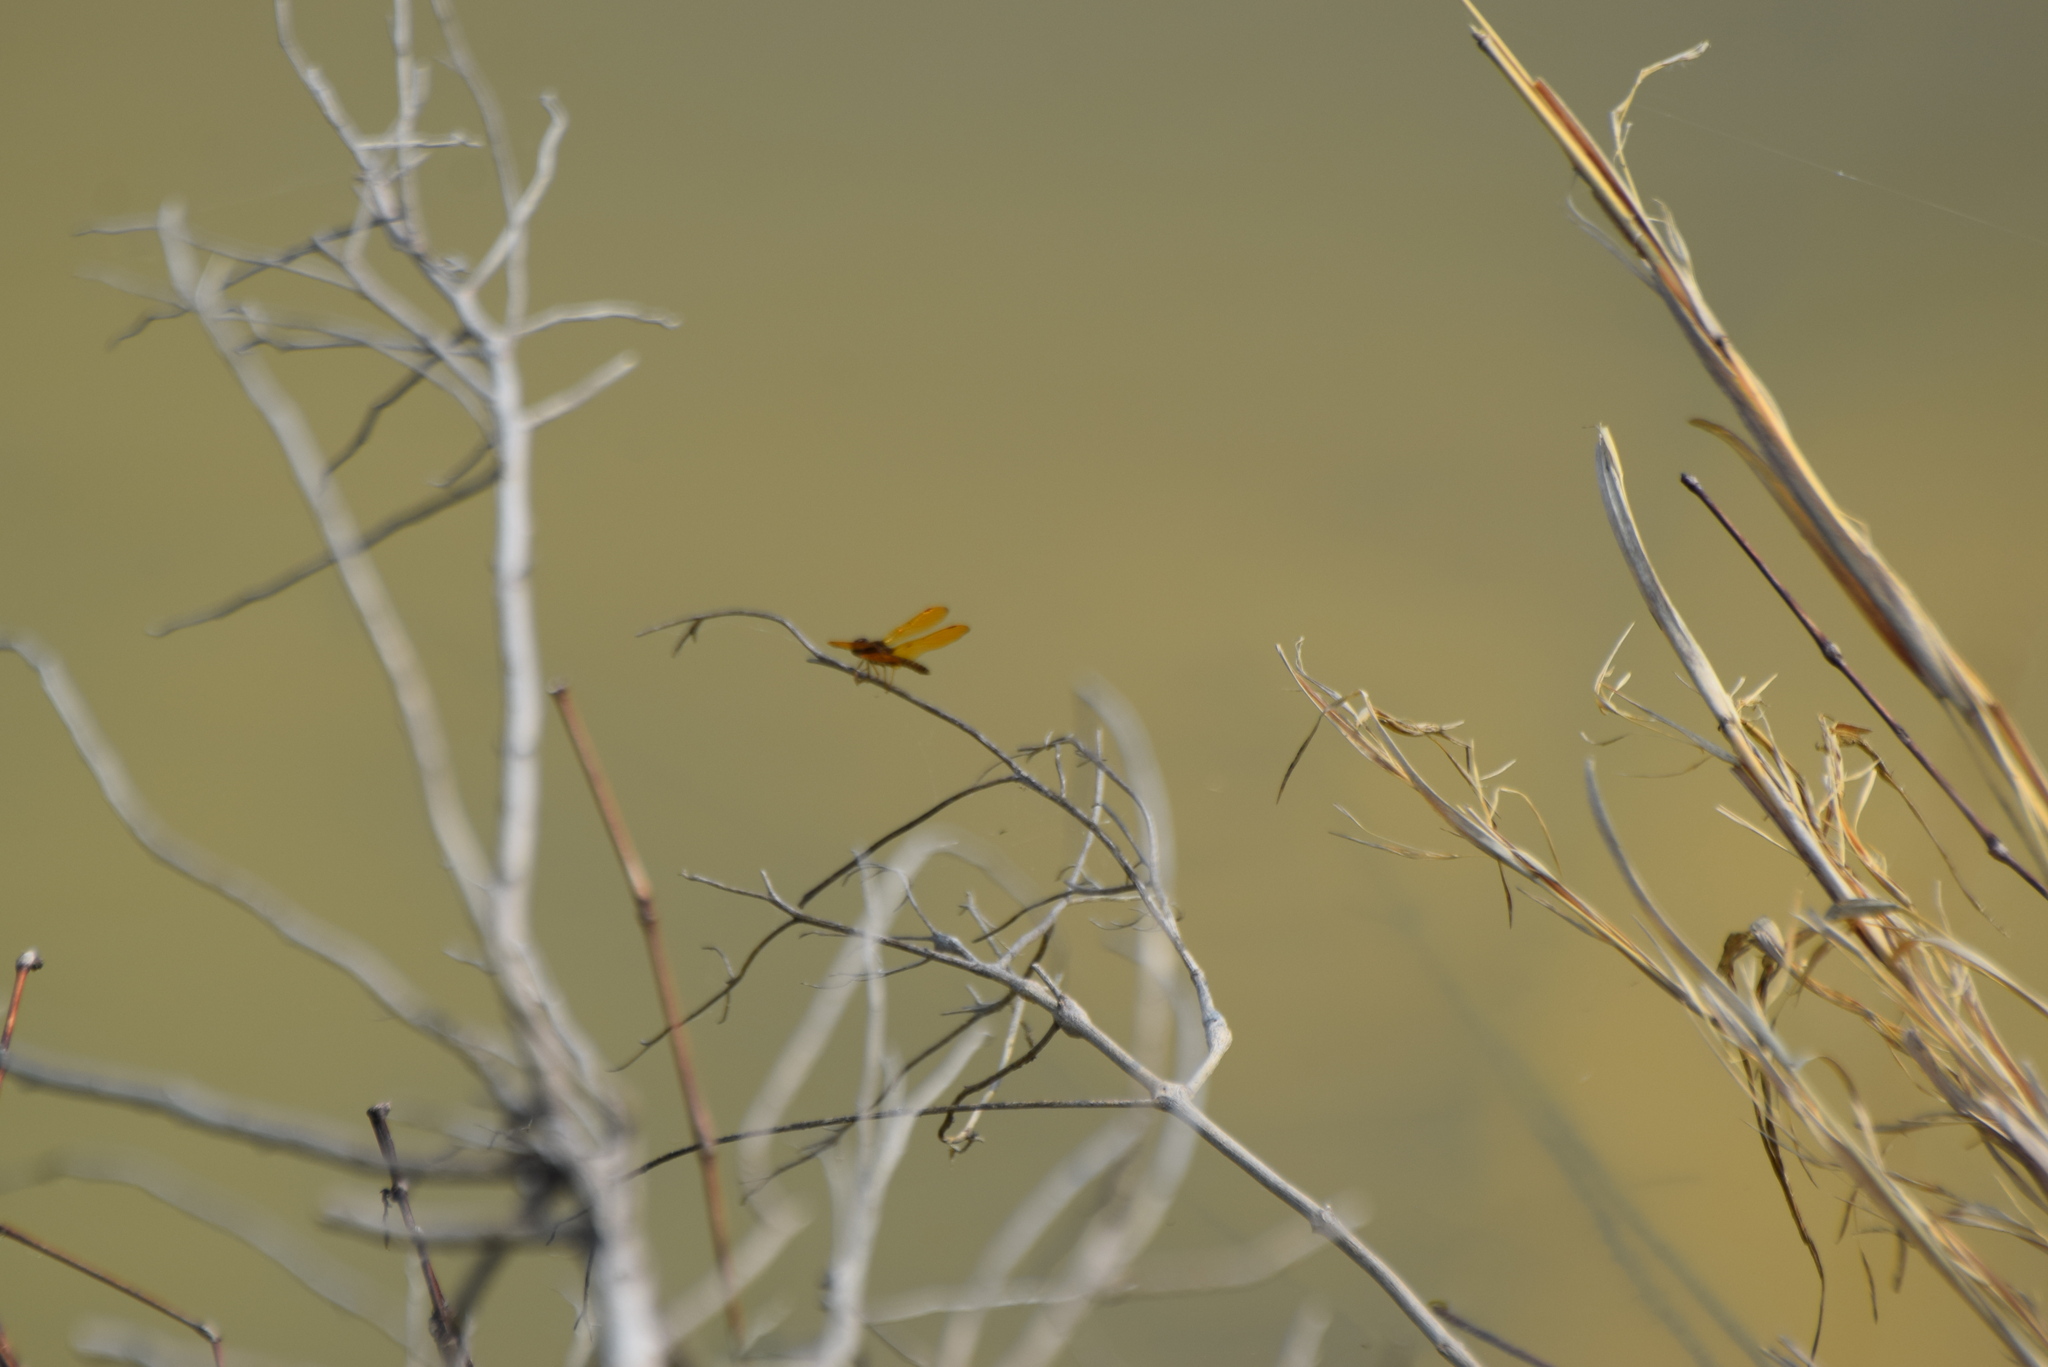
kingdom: Animalia
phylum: Arthropoda
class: Insecta
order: Odonata
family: Libellulidae
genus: Perithemis
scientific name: Perithemis tenera
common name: Eastern amberwing
